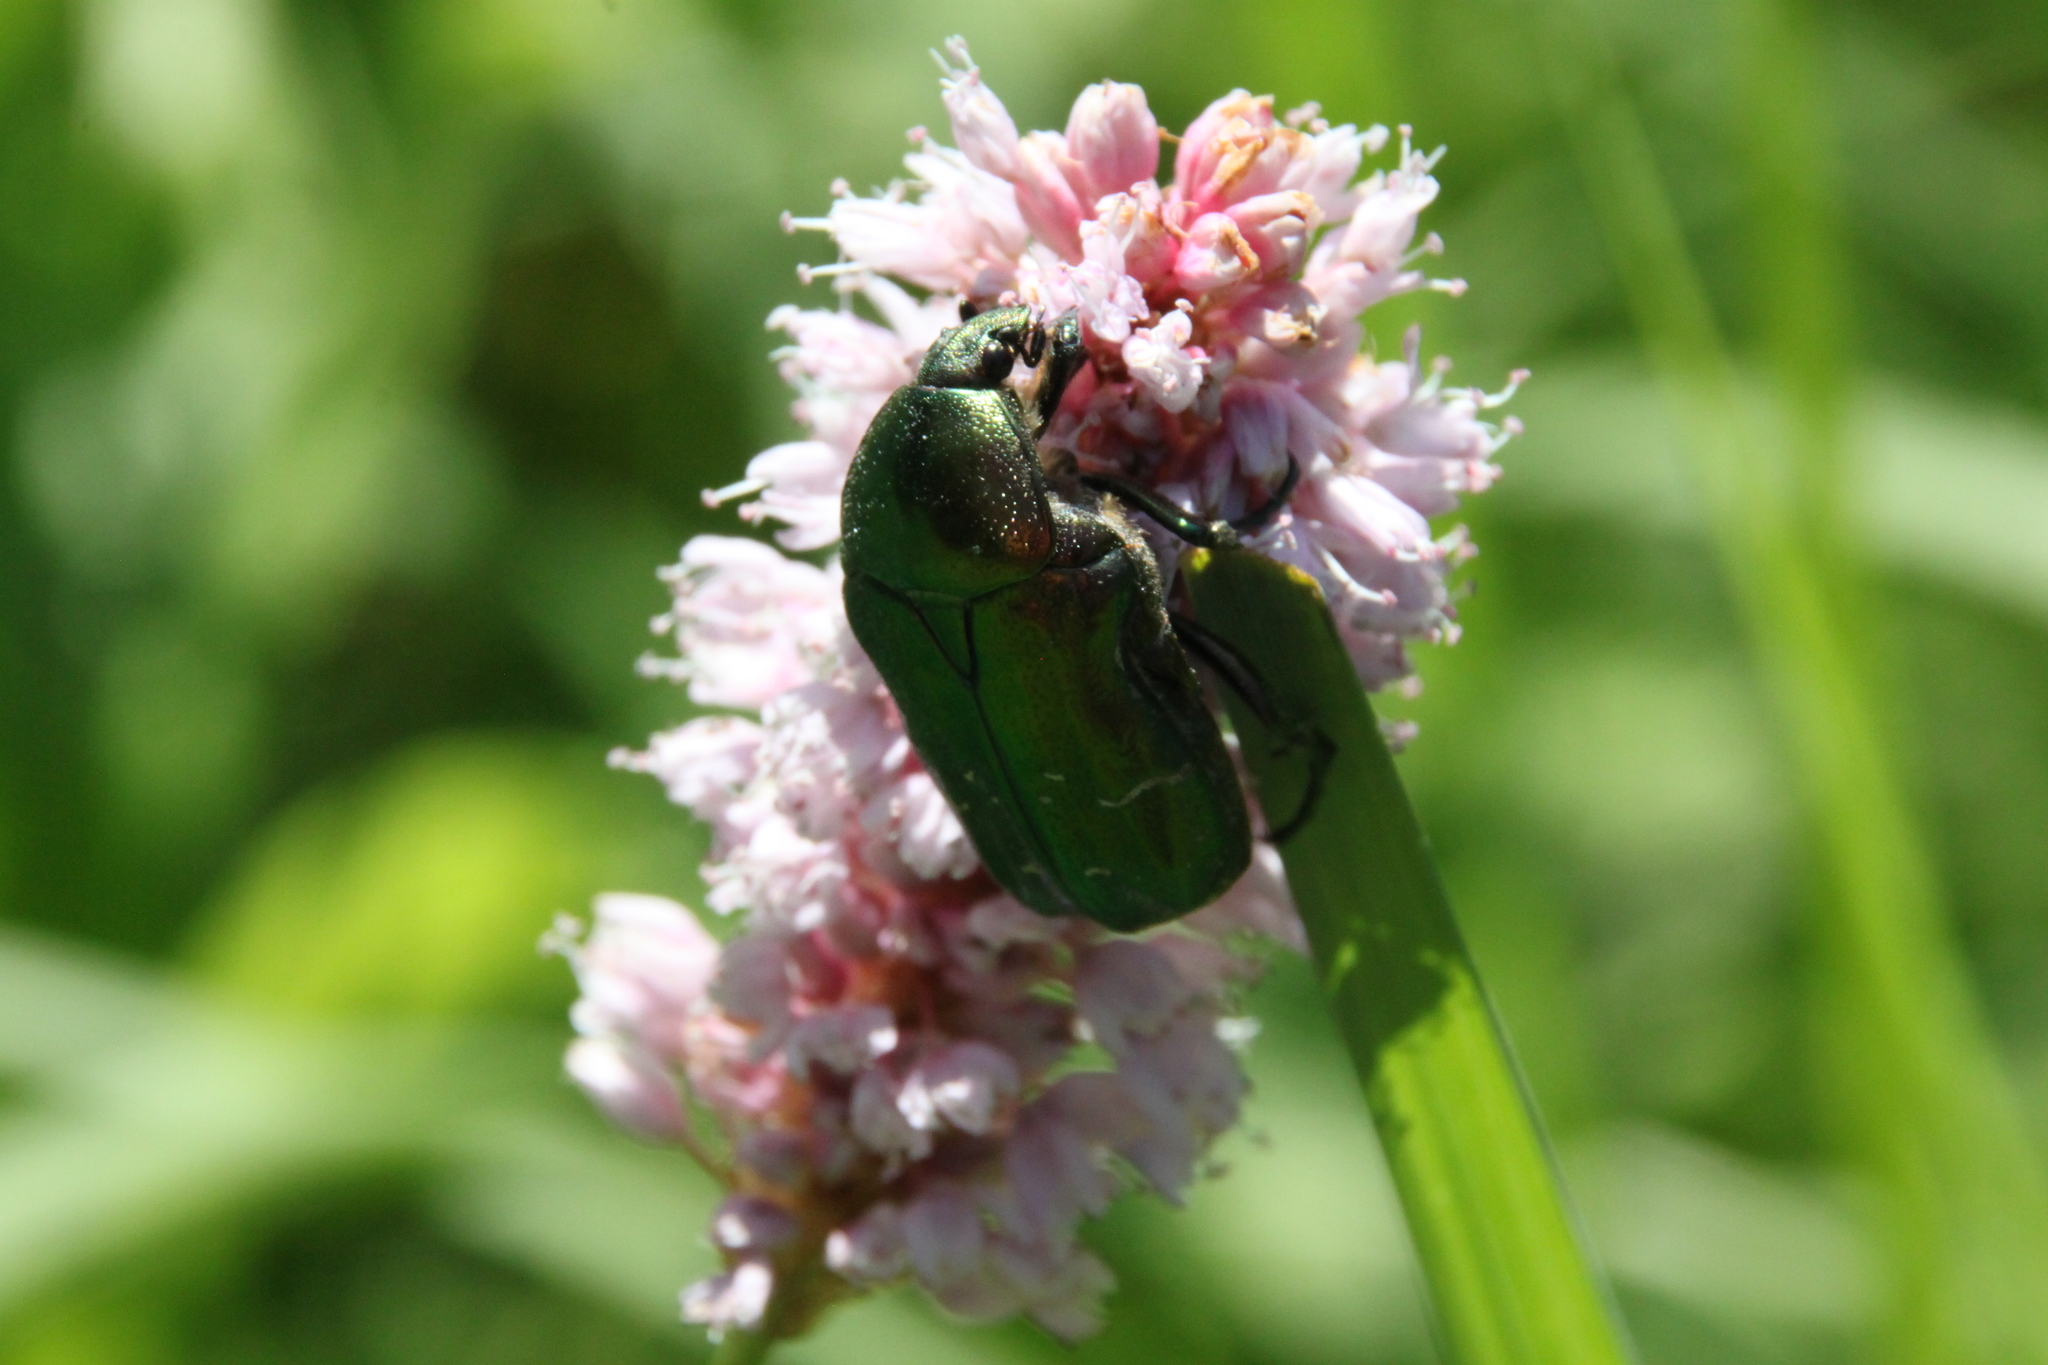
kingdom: Animalia
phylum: Arthropoda
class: Insecta
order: Coleoptera
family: Scarabaeidae
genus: Cetonia
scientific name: Cetonia aurata
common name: Rose chafer
